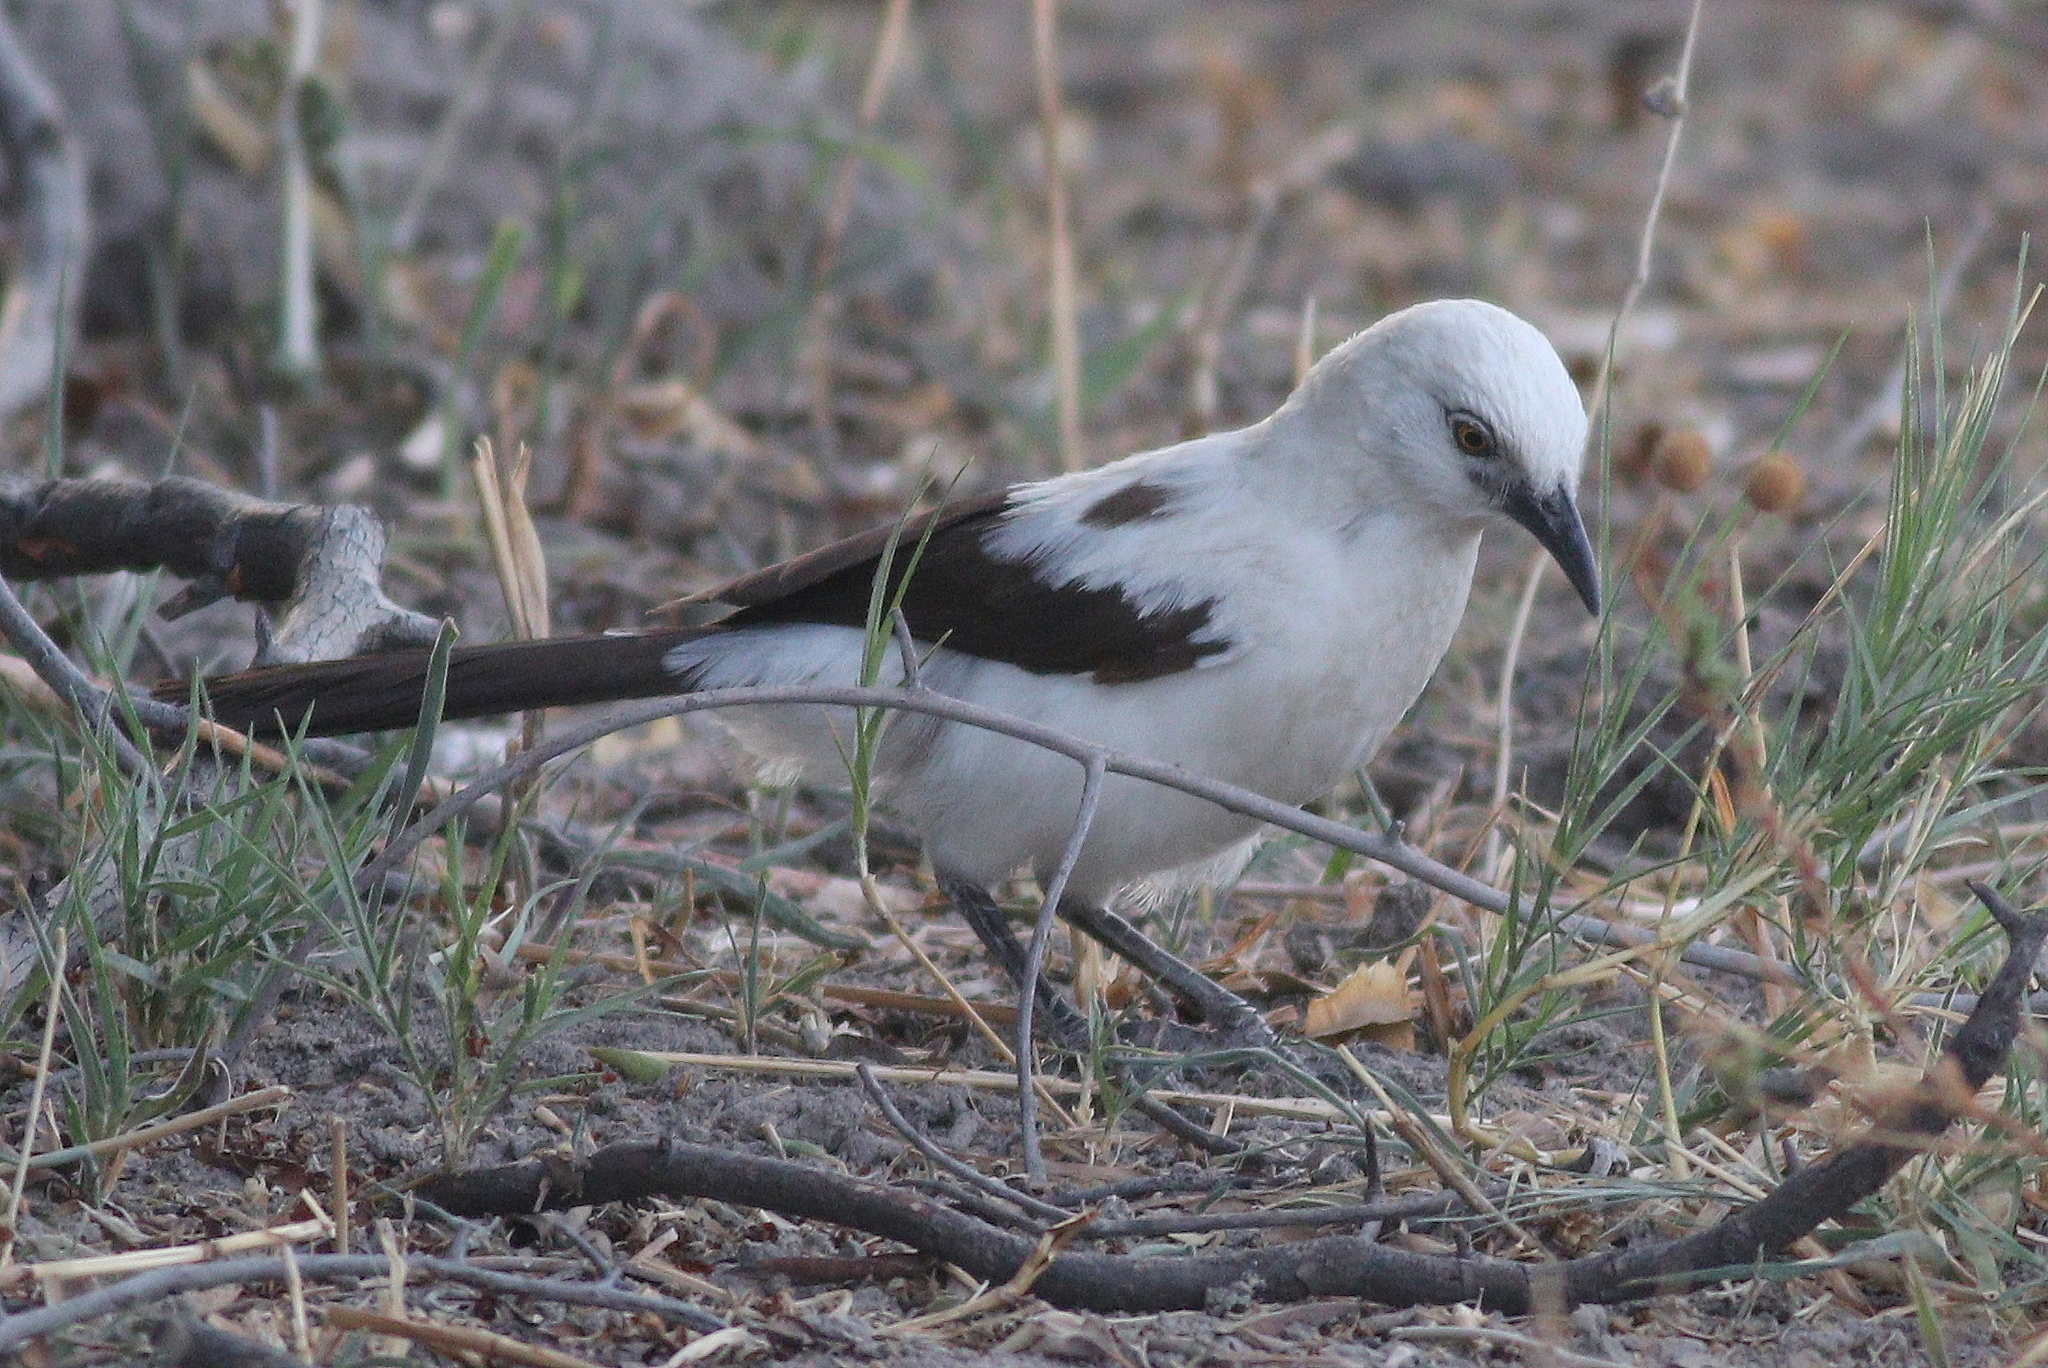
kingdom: Animalia
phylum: Chordata
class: Aves
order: Passeriformes
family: Leiothrichidae
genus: Turdoides
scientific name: Turdoides bicolor
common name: Southern pied babbler
